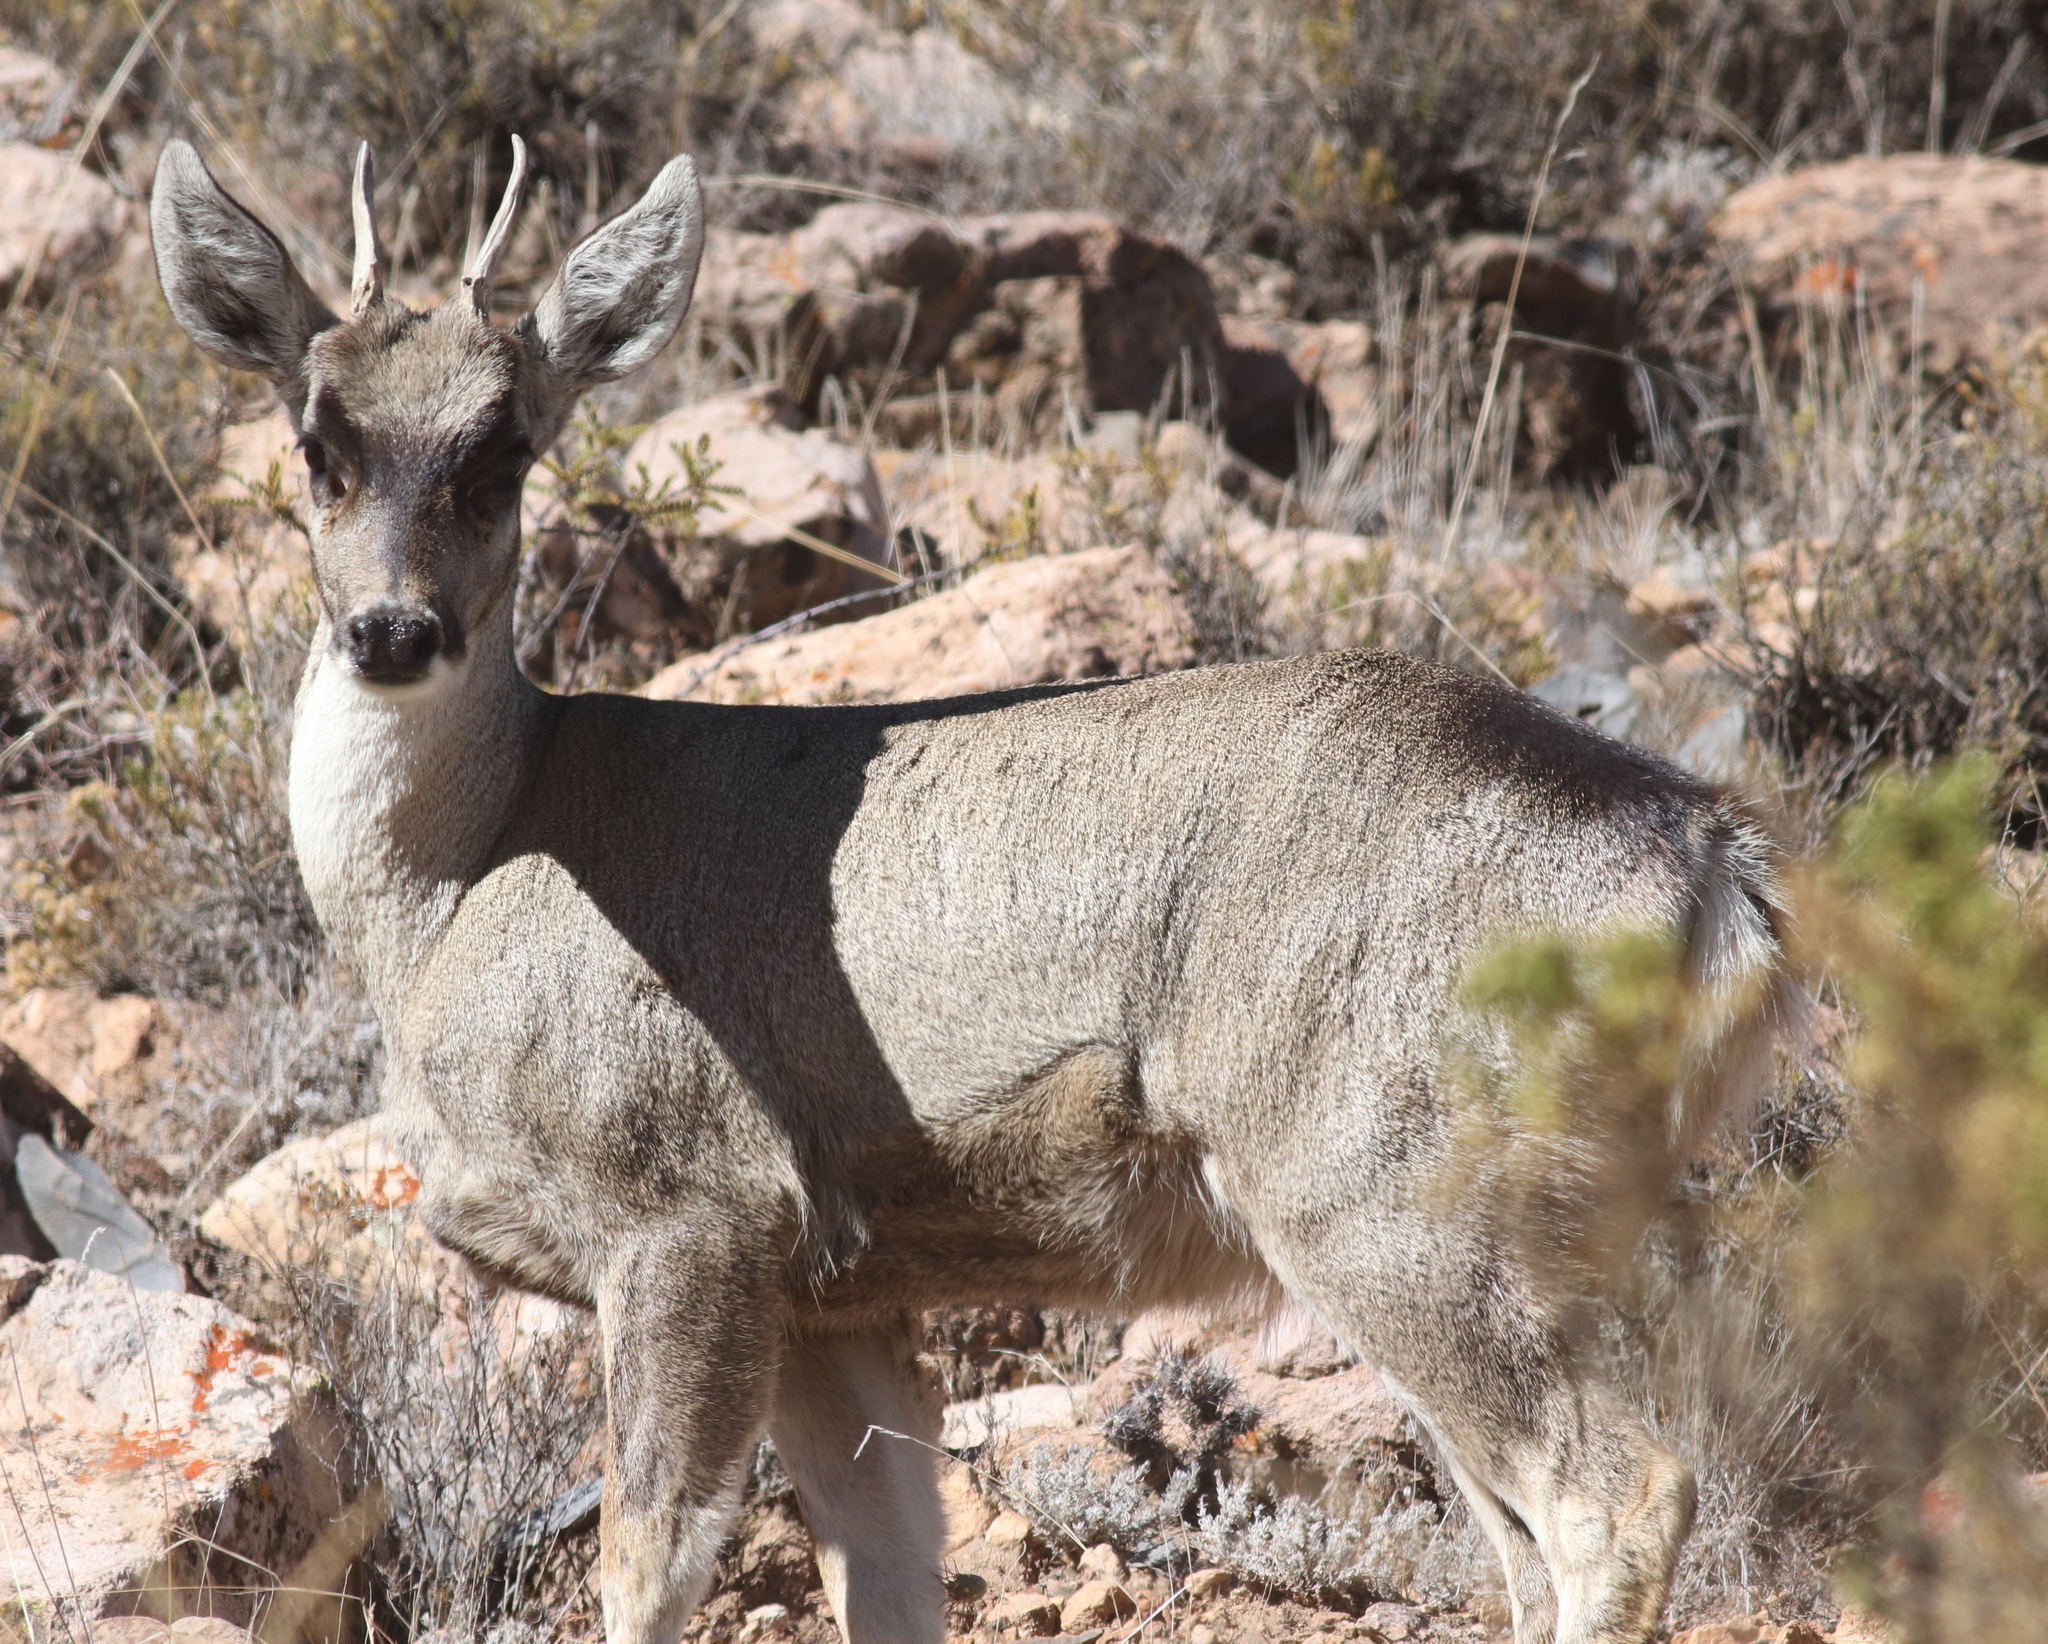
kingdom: Animalia
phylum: Chordata
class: Mammalia
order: Artiodactyla
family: Cervidae
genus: Hippocamelus
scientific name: Hippocamelus antisensis
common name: Taruca
